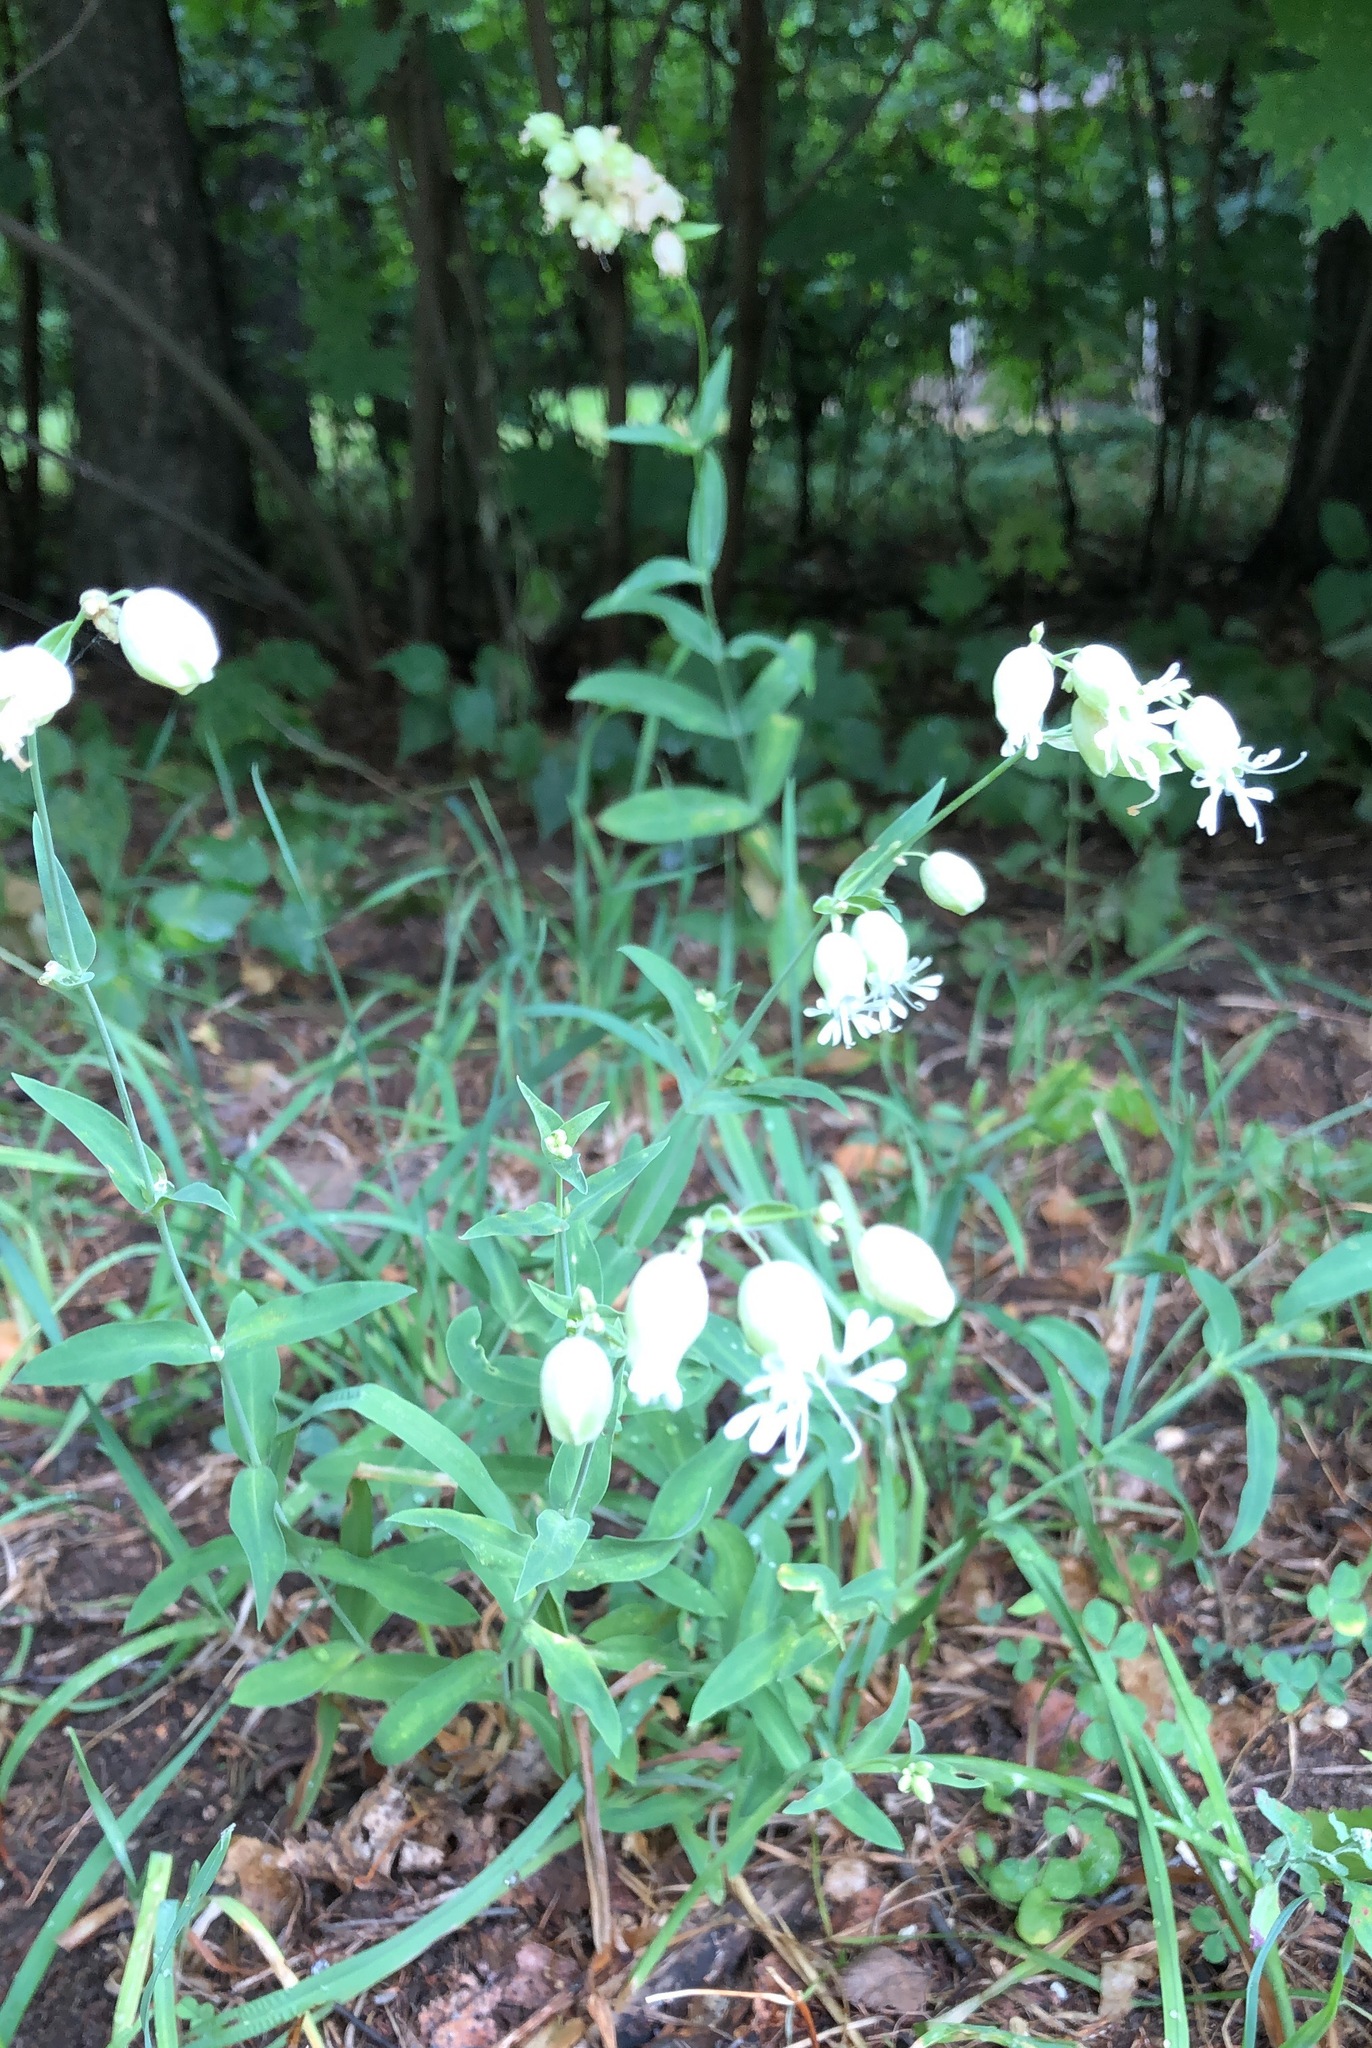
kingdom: Plantae
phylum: Tracheophyta
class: Magnoliopsida
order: Caryophyllales
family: Caryophyllaceae
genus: Silene
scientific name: Silene vulgaris
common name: Bladder campion
